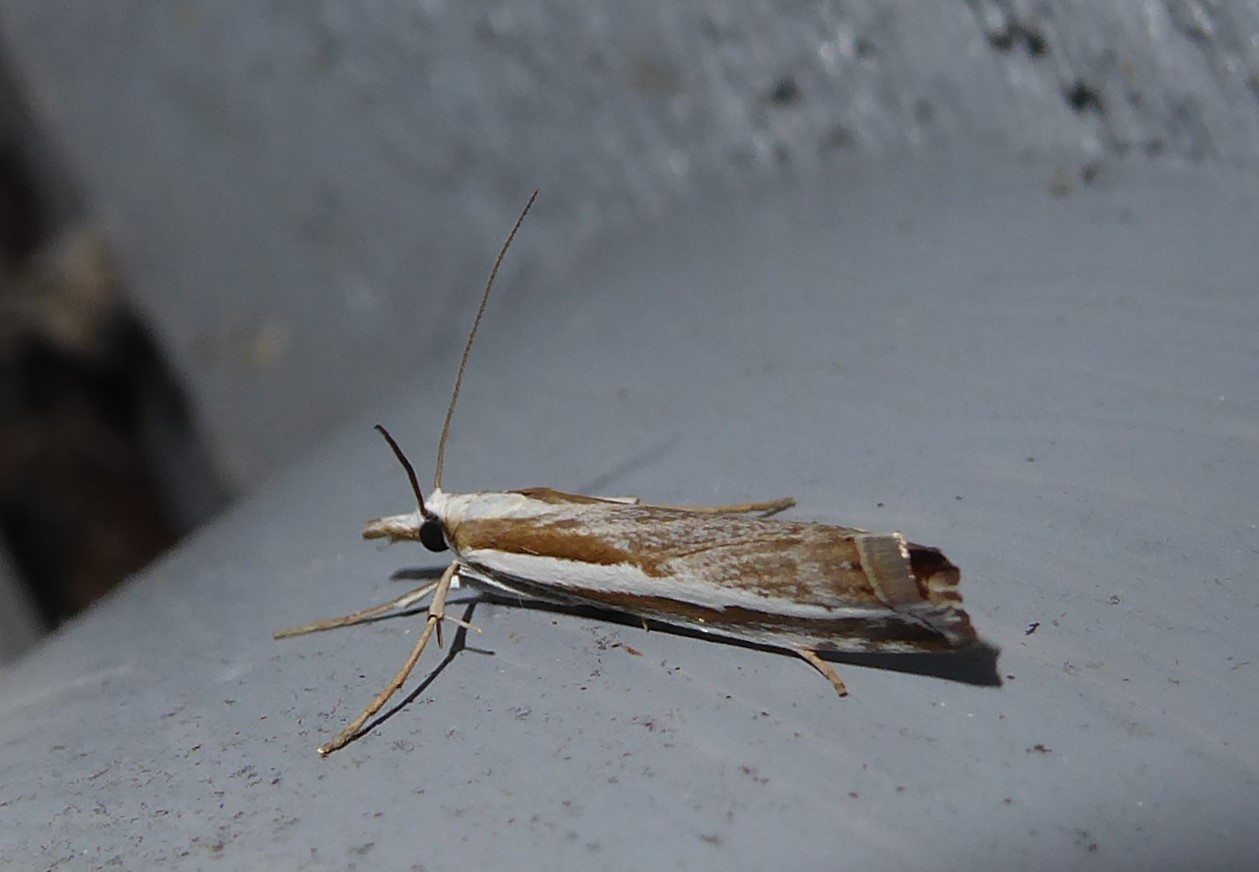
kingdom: Animalia
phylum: Arthropoda
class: Insecta
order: Lepidoptera
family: Crambidae
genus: Orocrambus
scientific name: Orocrambus vittellus
